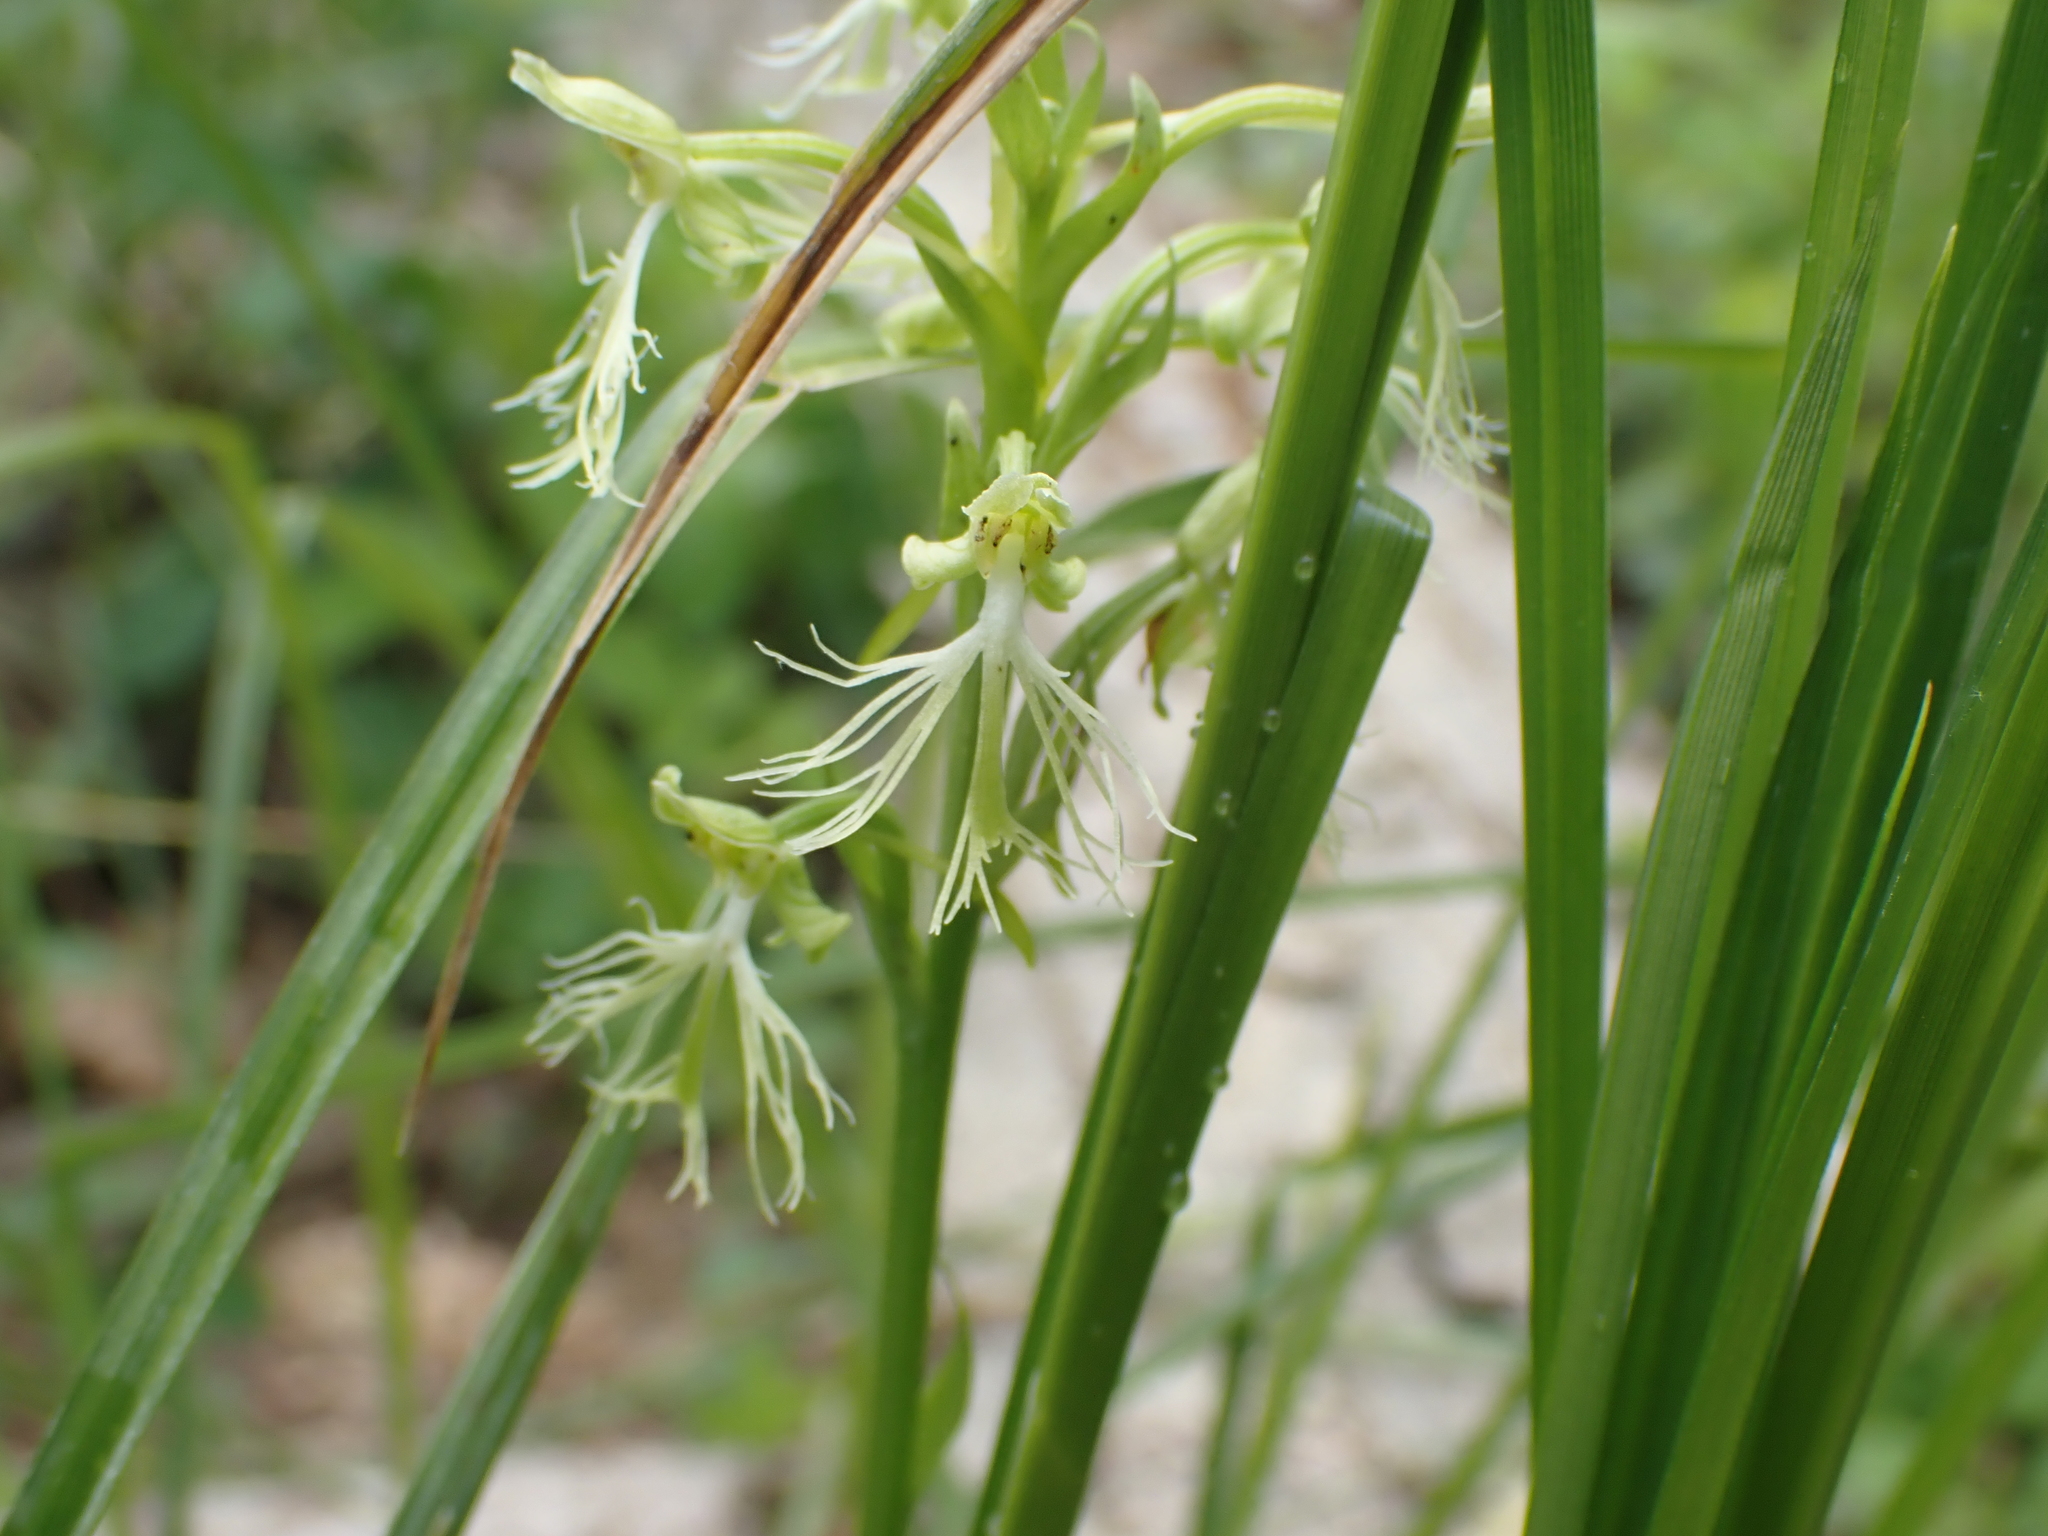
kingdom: Plantae
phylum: Tracheophyta
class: Liliopsida
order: Asparagales
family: Orchidaceae
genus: Platanthera
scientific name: Platanthera lacera
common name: Green fringed orchid
